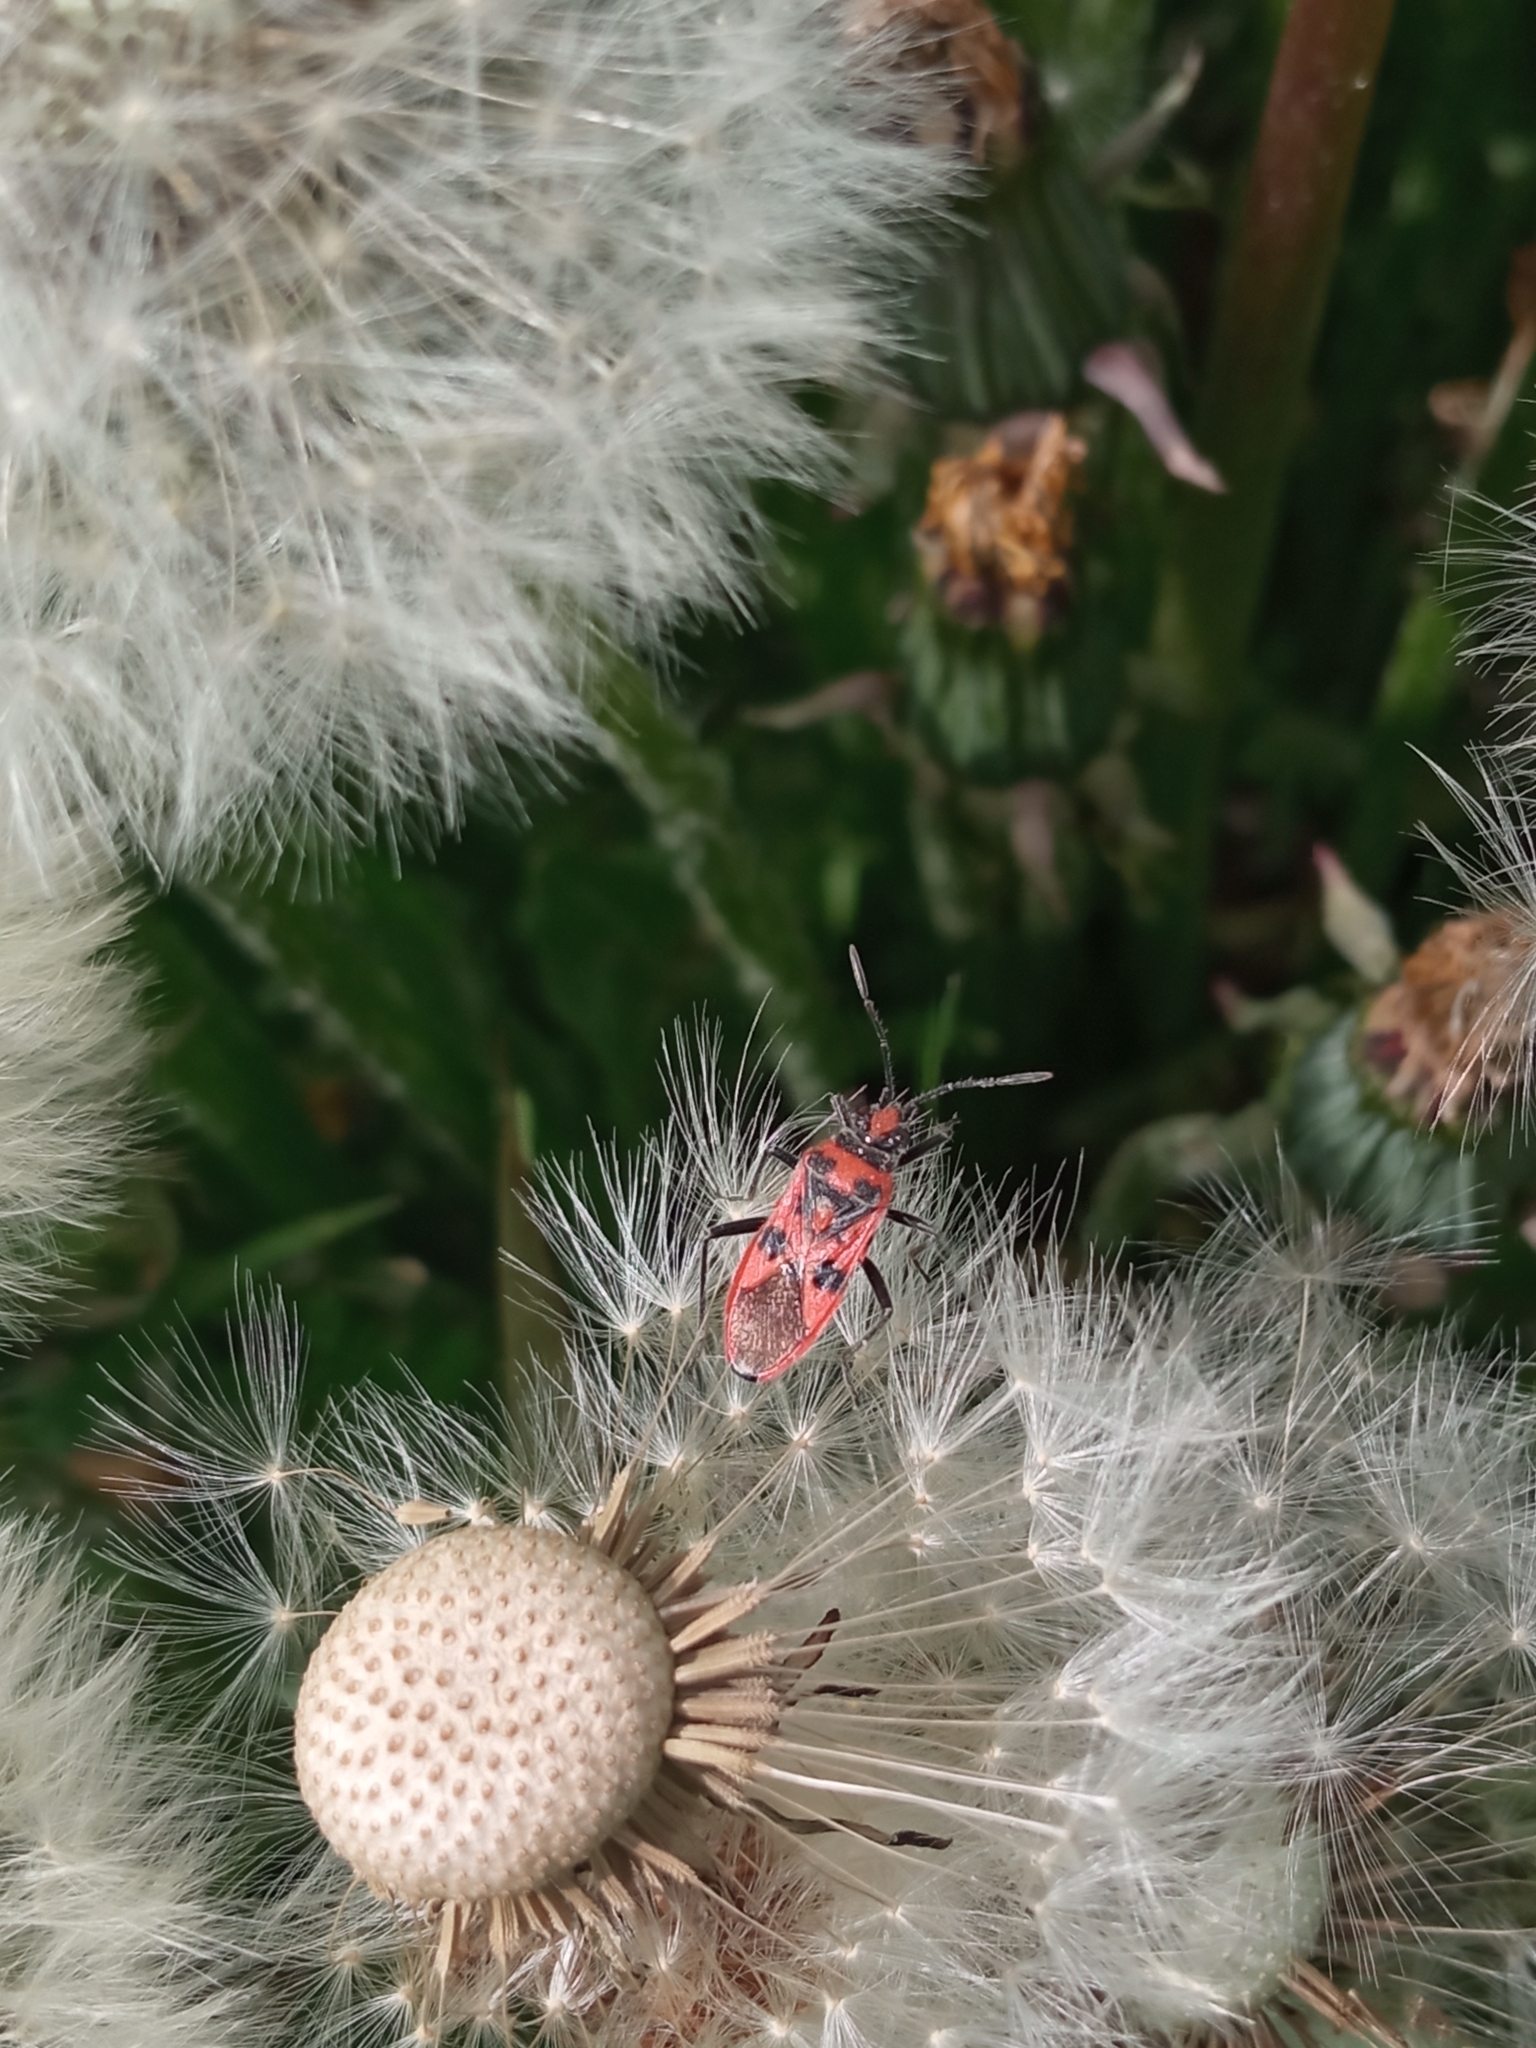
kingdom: Animalia
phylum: Arthropoda
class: Insecta
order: Hemiptera
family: Rhopalidae
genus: Corizus
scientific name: Corizus hyoscyami
